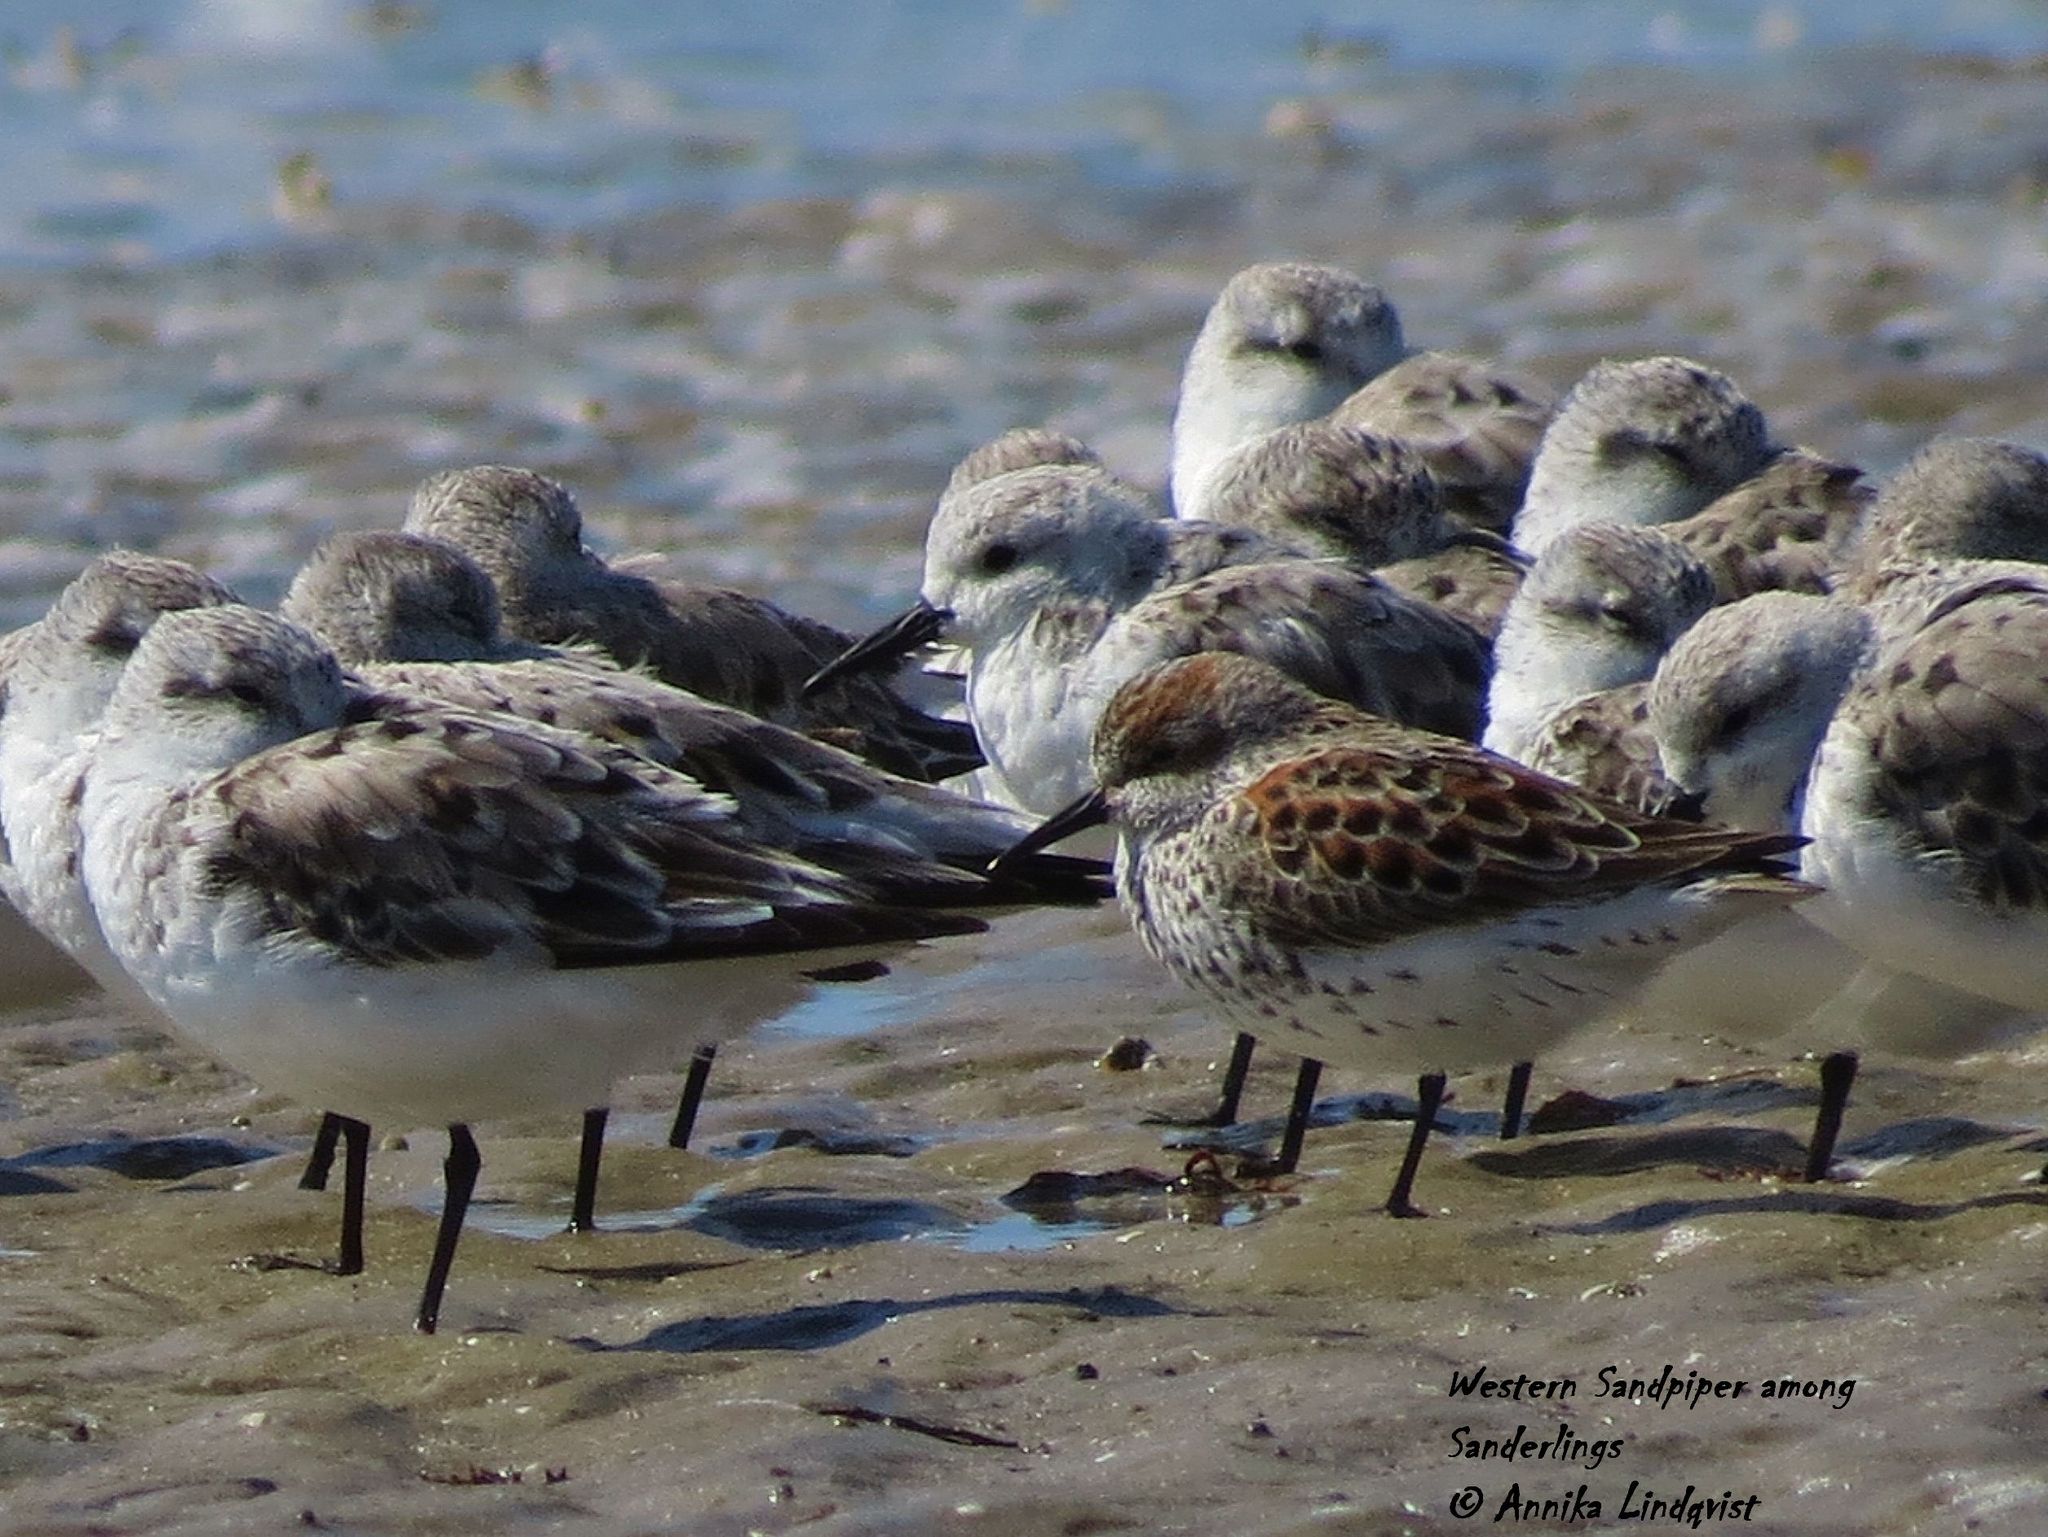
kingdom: Animalia
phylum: Chordata
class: Aves
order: Charadriiformes
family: Scolopacidae
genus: Calidris
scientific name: Calidris mauri
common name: Western sandpiper
